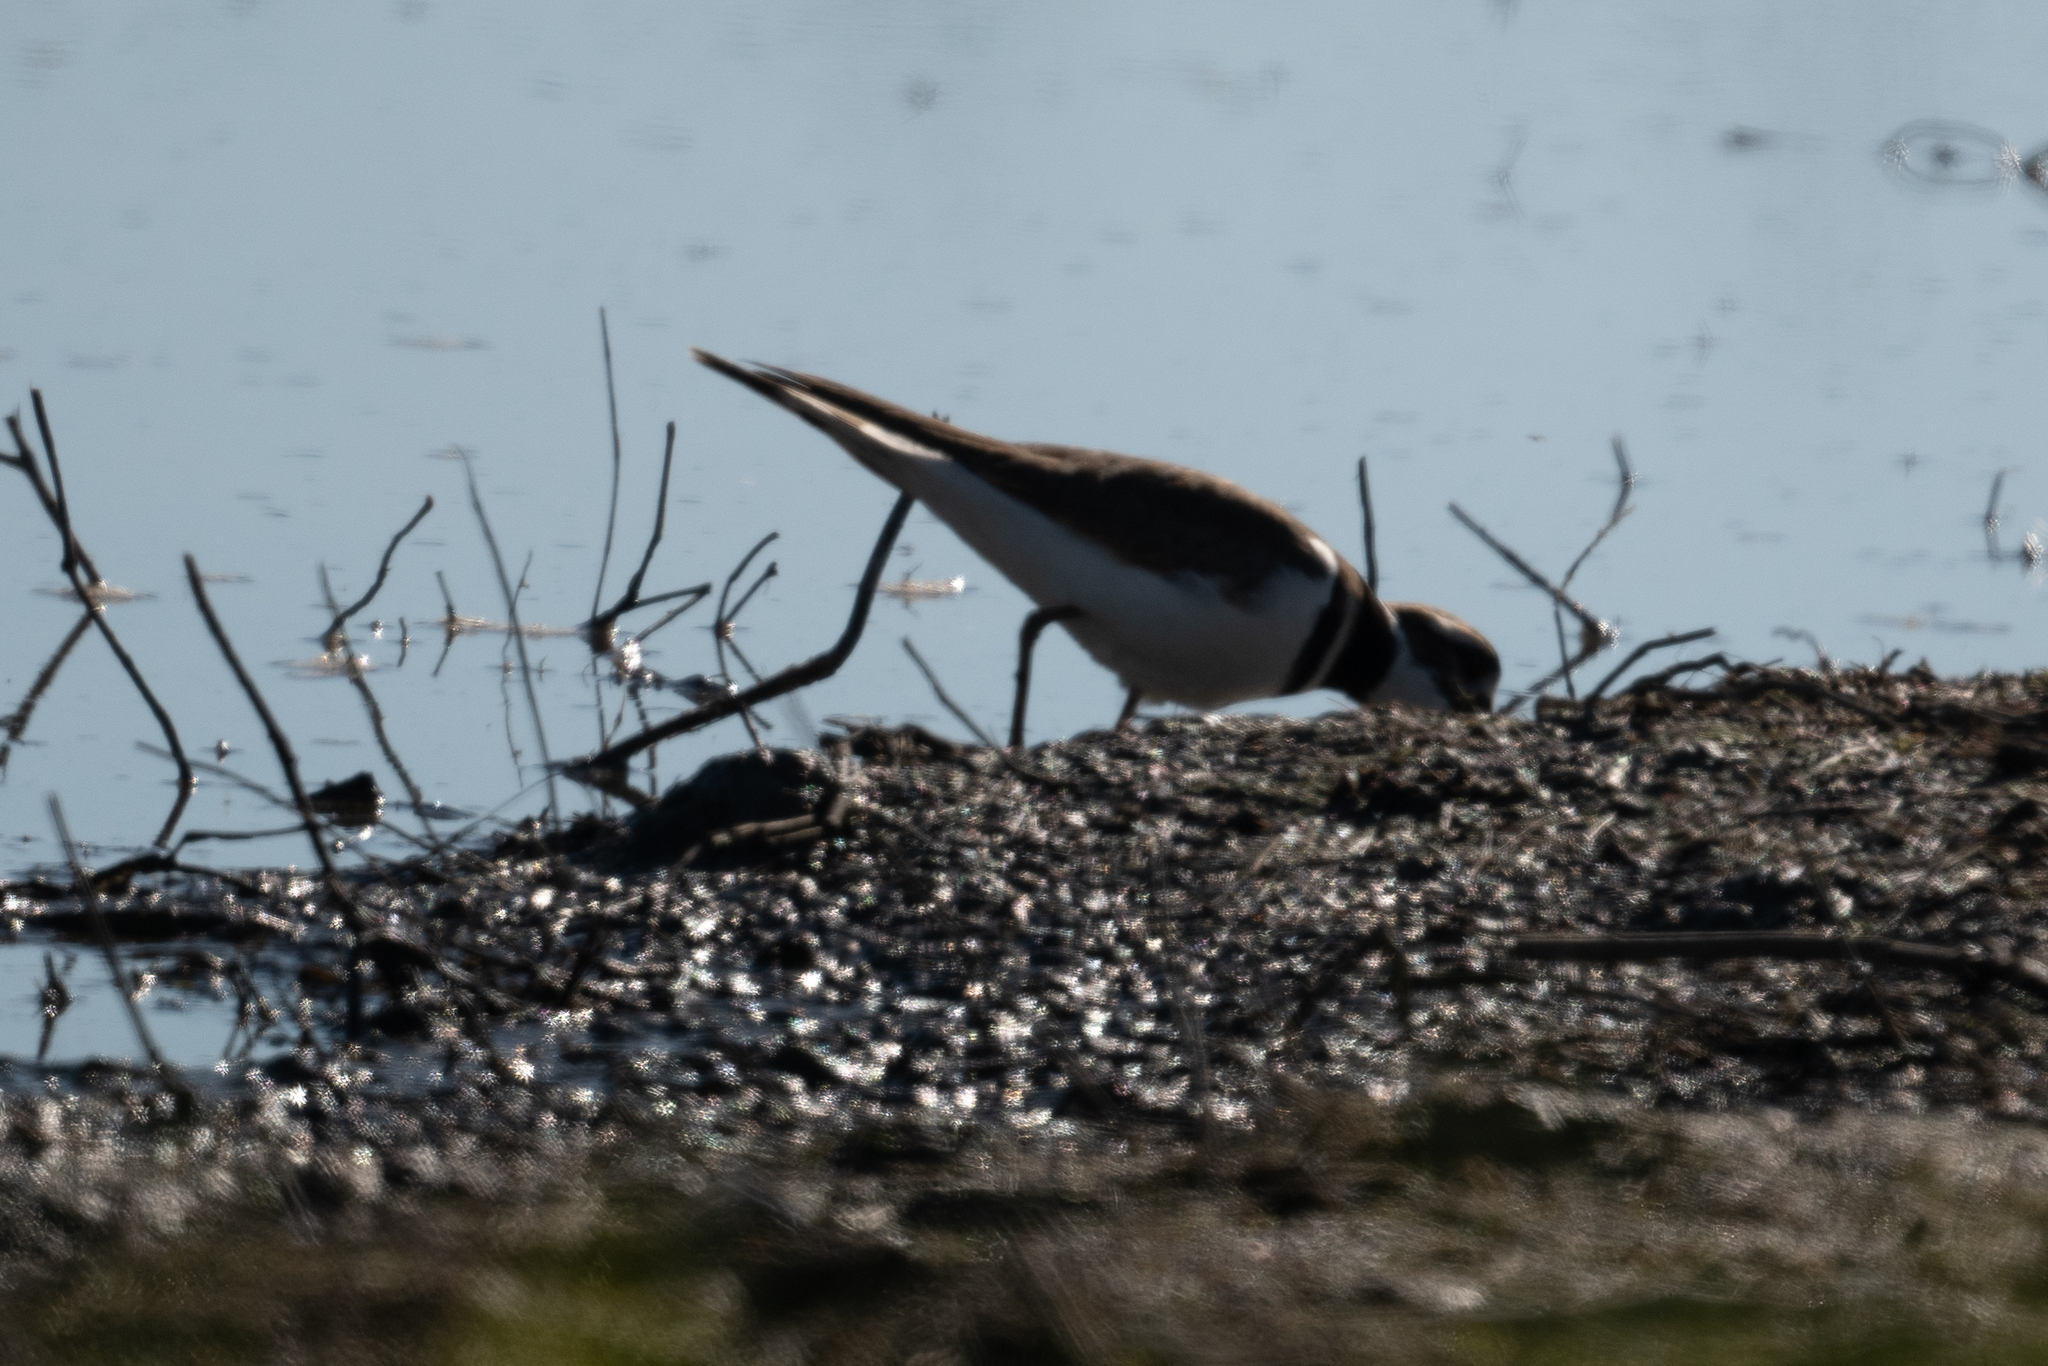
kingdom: Animalia
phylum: Chordata
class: Aves
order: Charadriiformes
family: Charadriidae
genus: Charadrius
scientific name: Charadrius vociferus
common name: Killdeer
